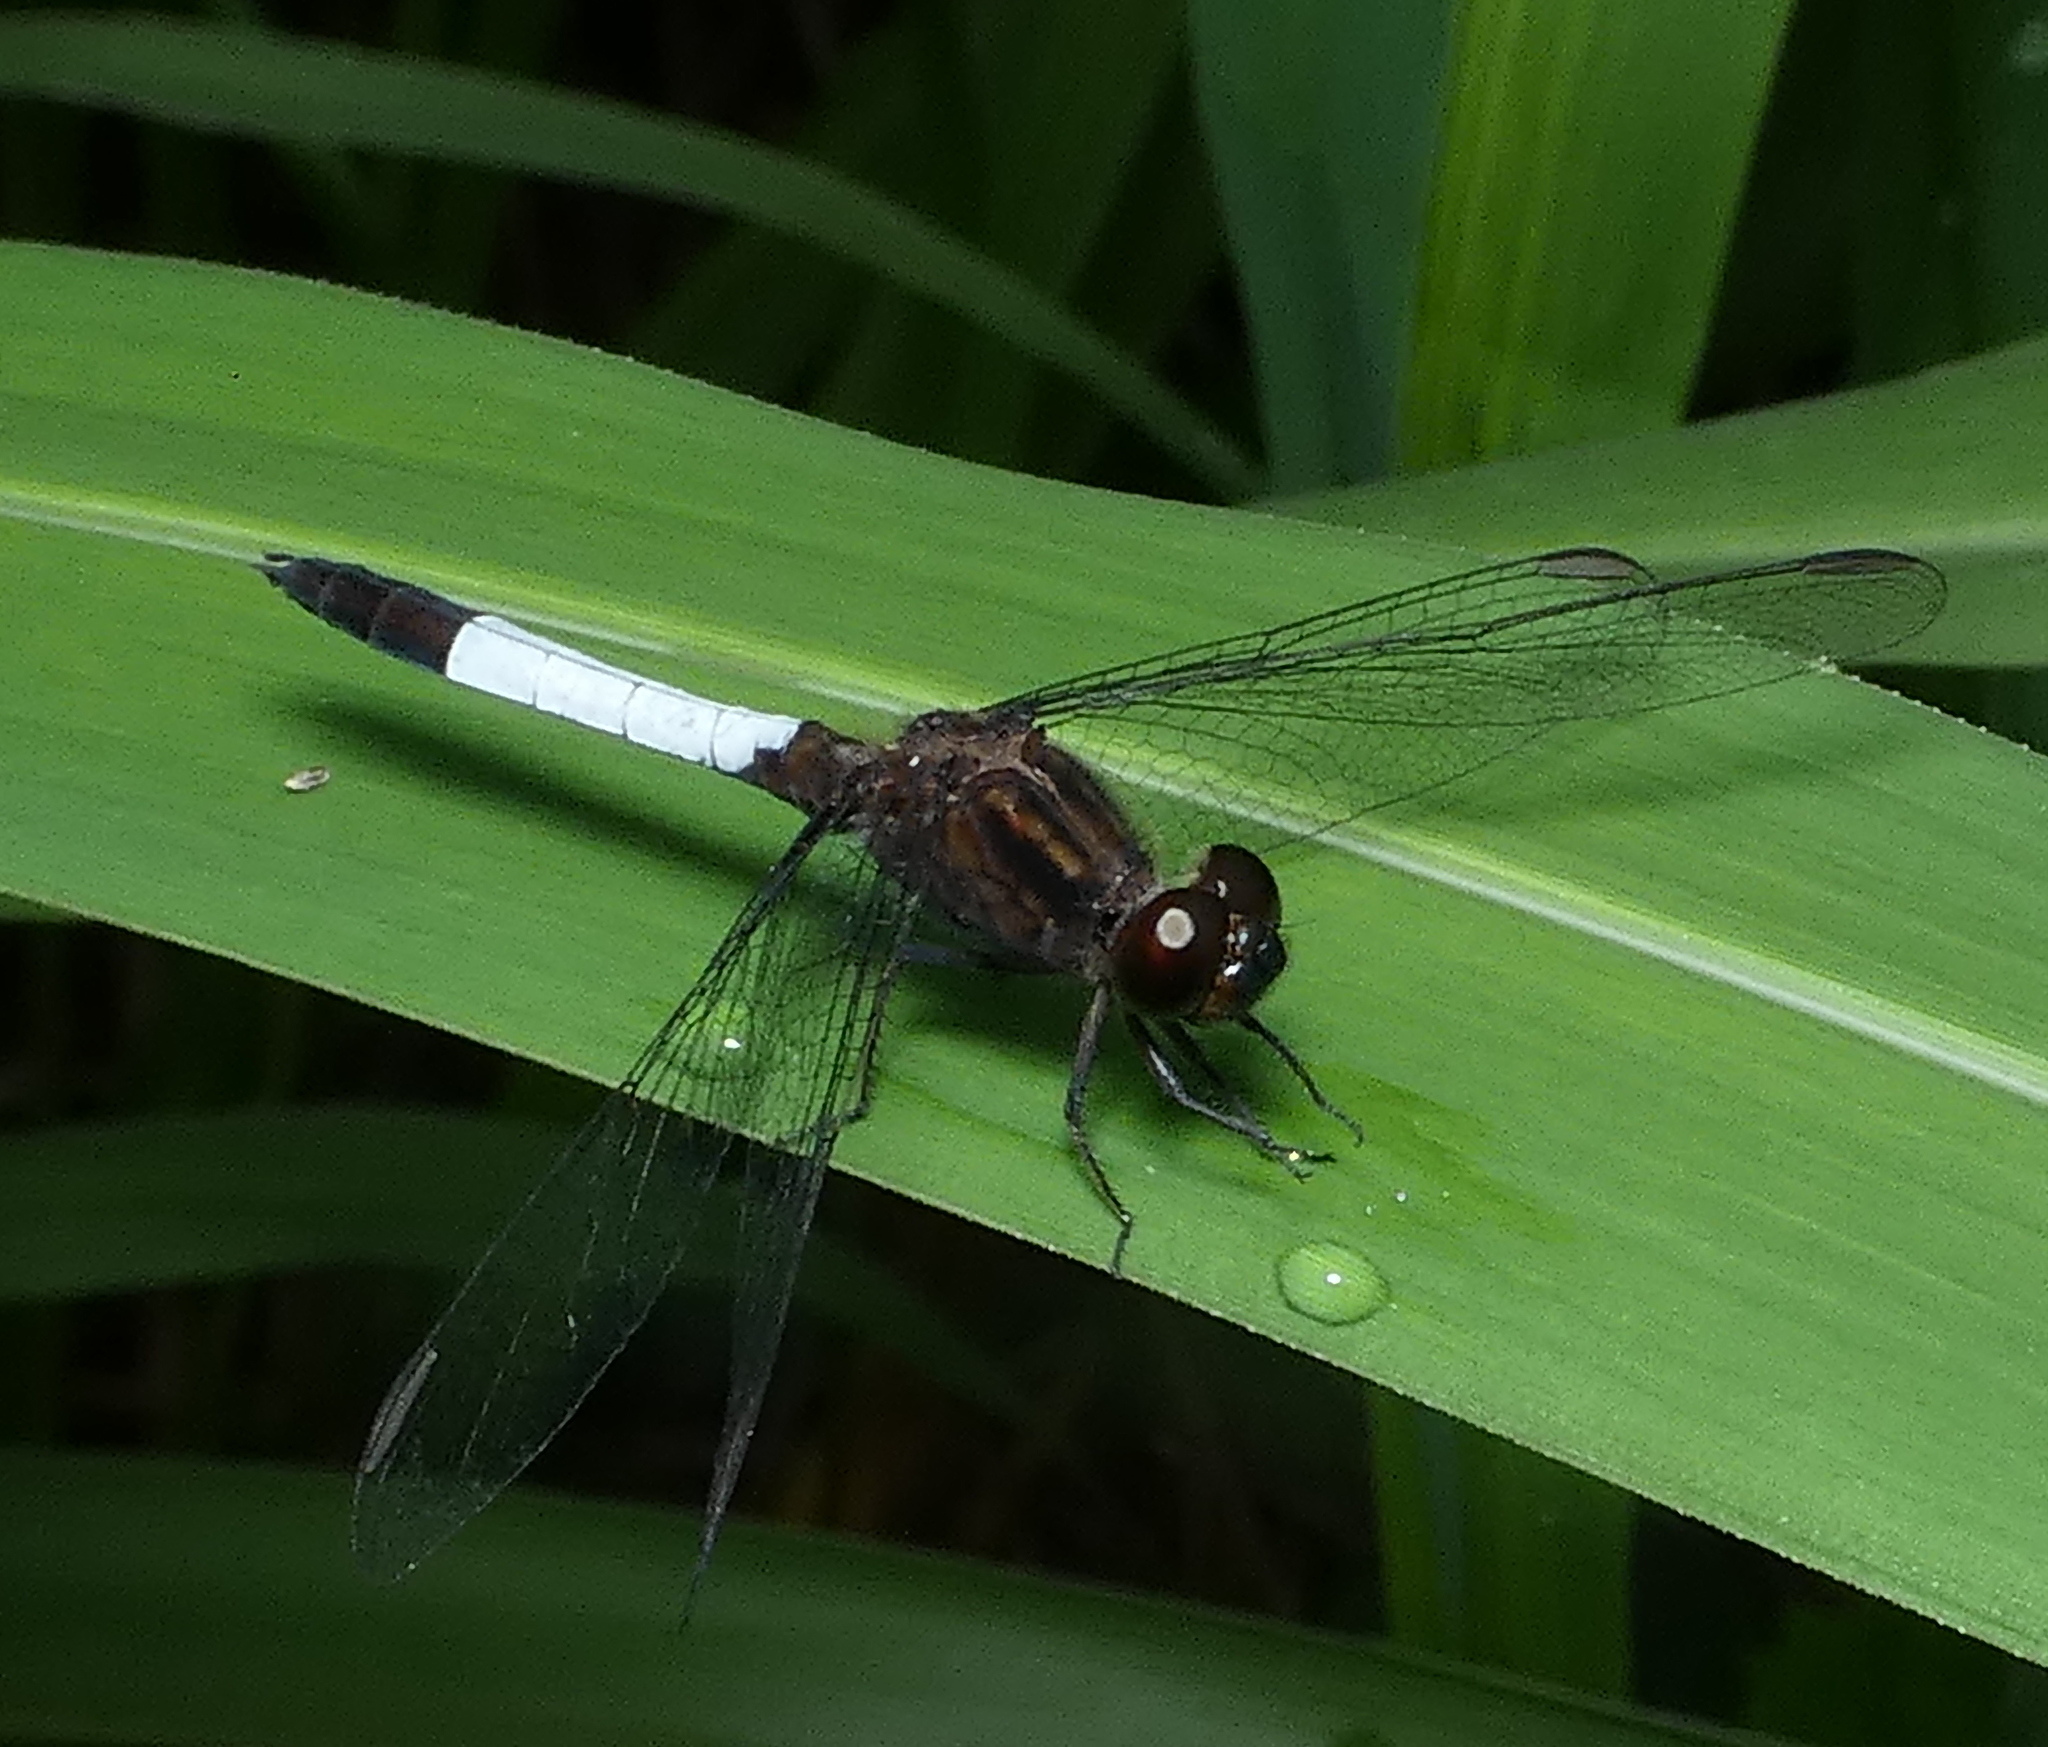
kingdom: Animalia
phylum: Arthropoda
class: Insecta
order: Odonata
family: Libellulidae
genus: Erythrodiplax
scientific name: Erythrodiplax media
